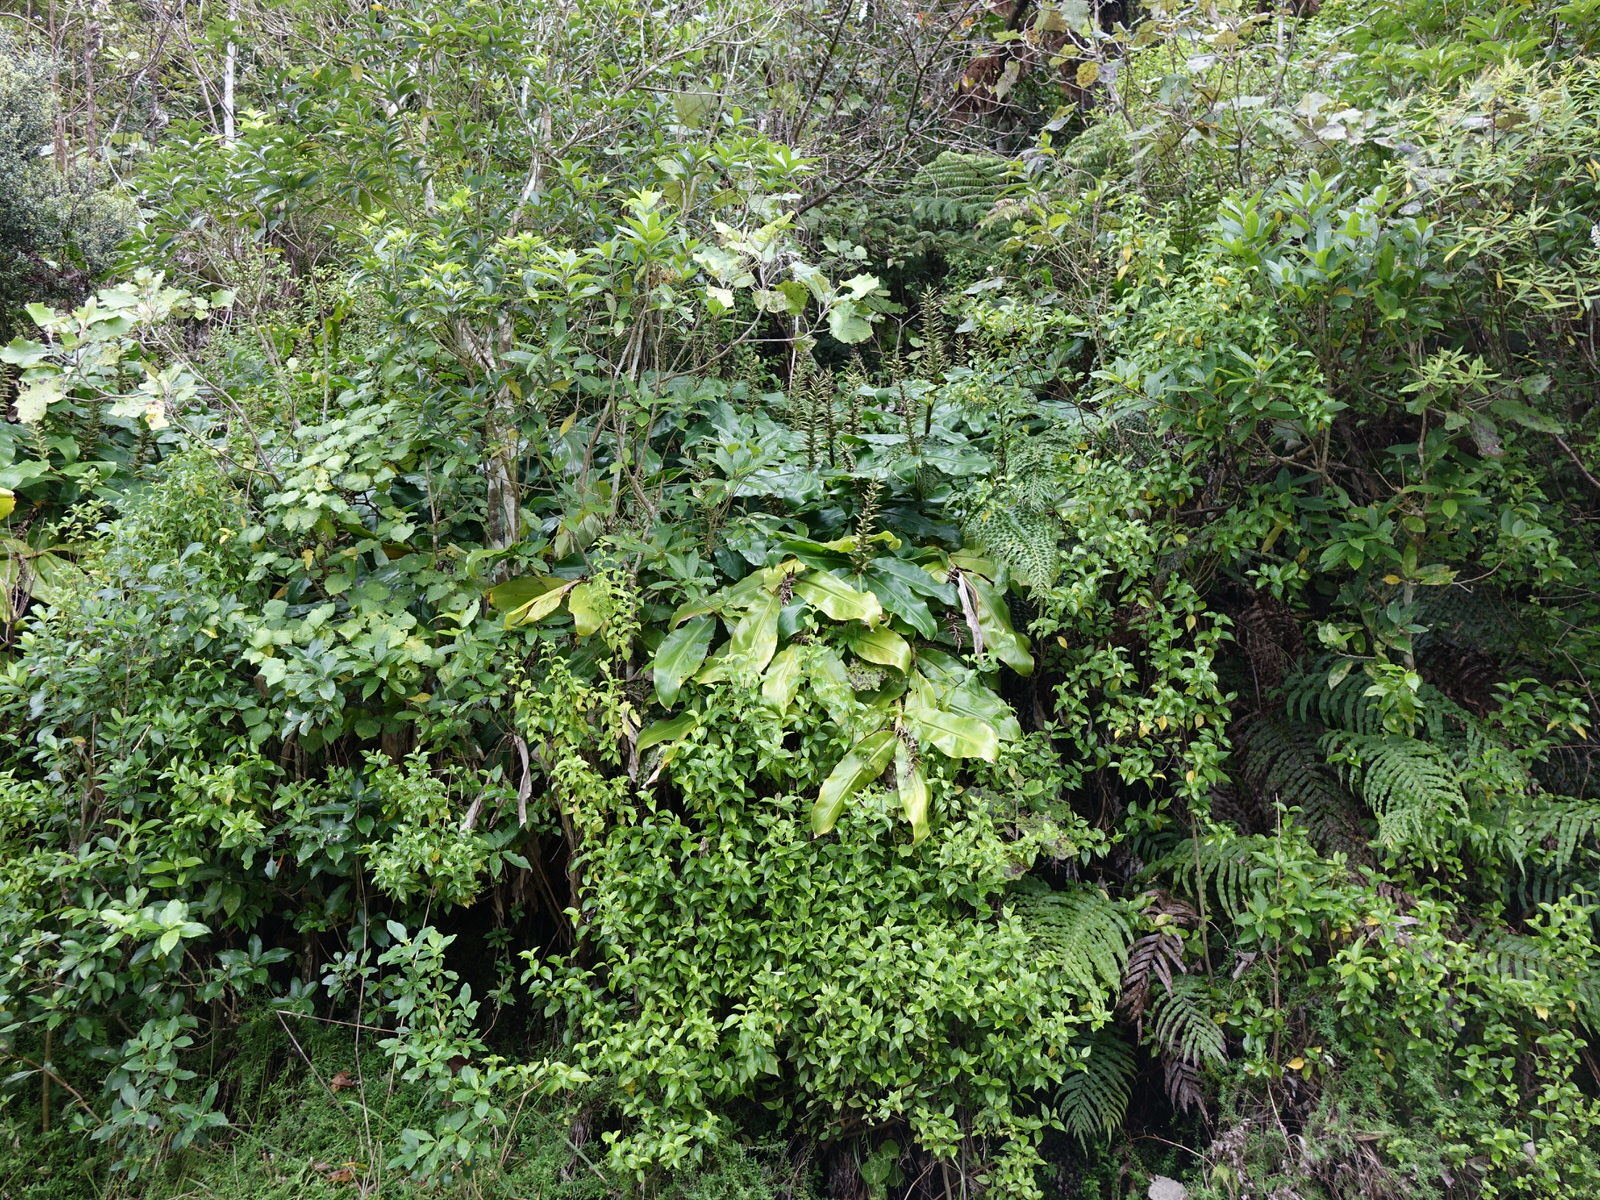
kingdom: Plantae
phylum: Tracheophyta
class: Liliopsida
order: Zingiberales
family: Zingiberaceae
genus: Hedychium
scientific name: Hedychium gardnerianum
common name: Himalayan ginger
